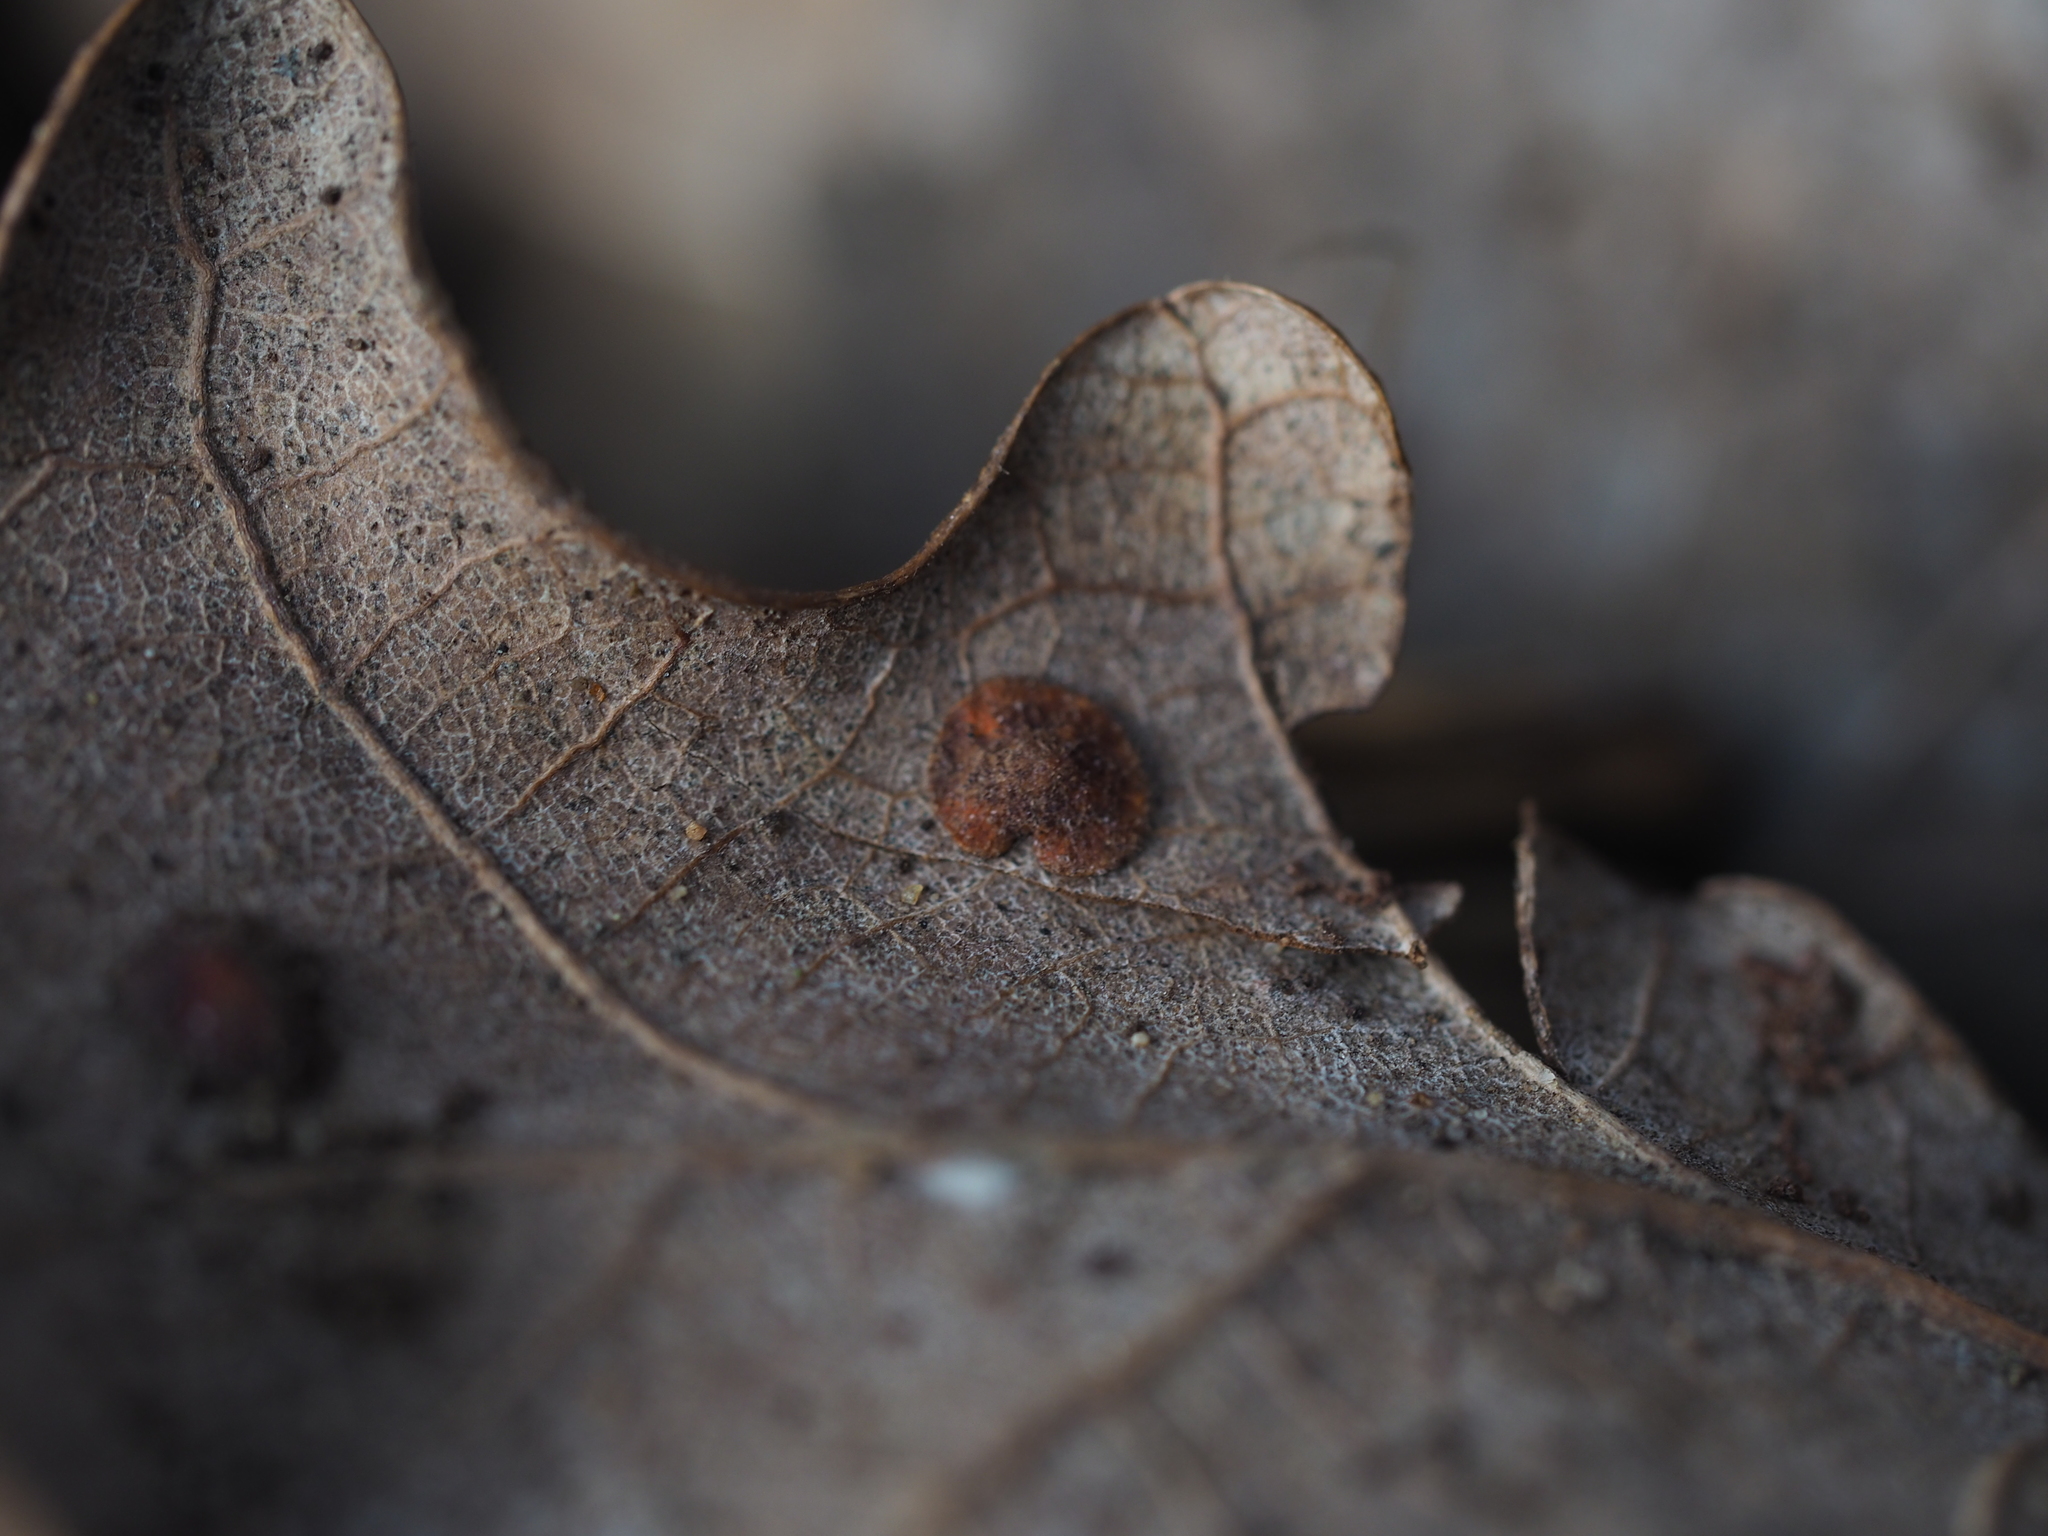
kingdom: Animalia
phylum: Arthropoda
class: Insecta
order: Hymenoptera
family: Cynipidae
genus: Neuroterus
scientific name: Neuroterus quercusbaccarum
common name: Common spangle gall
